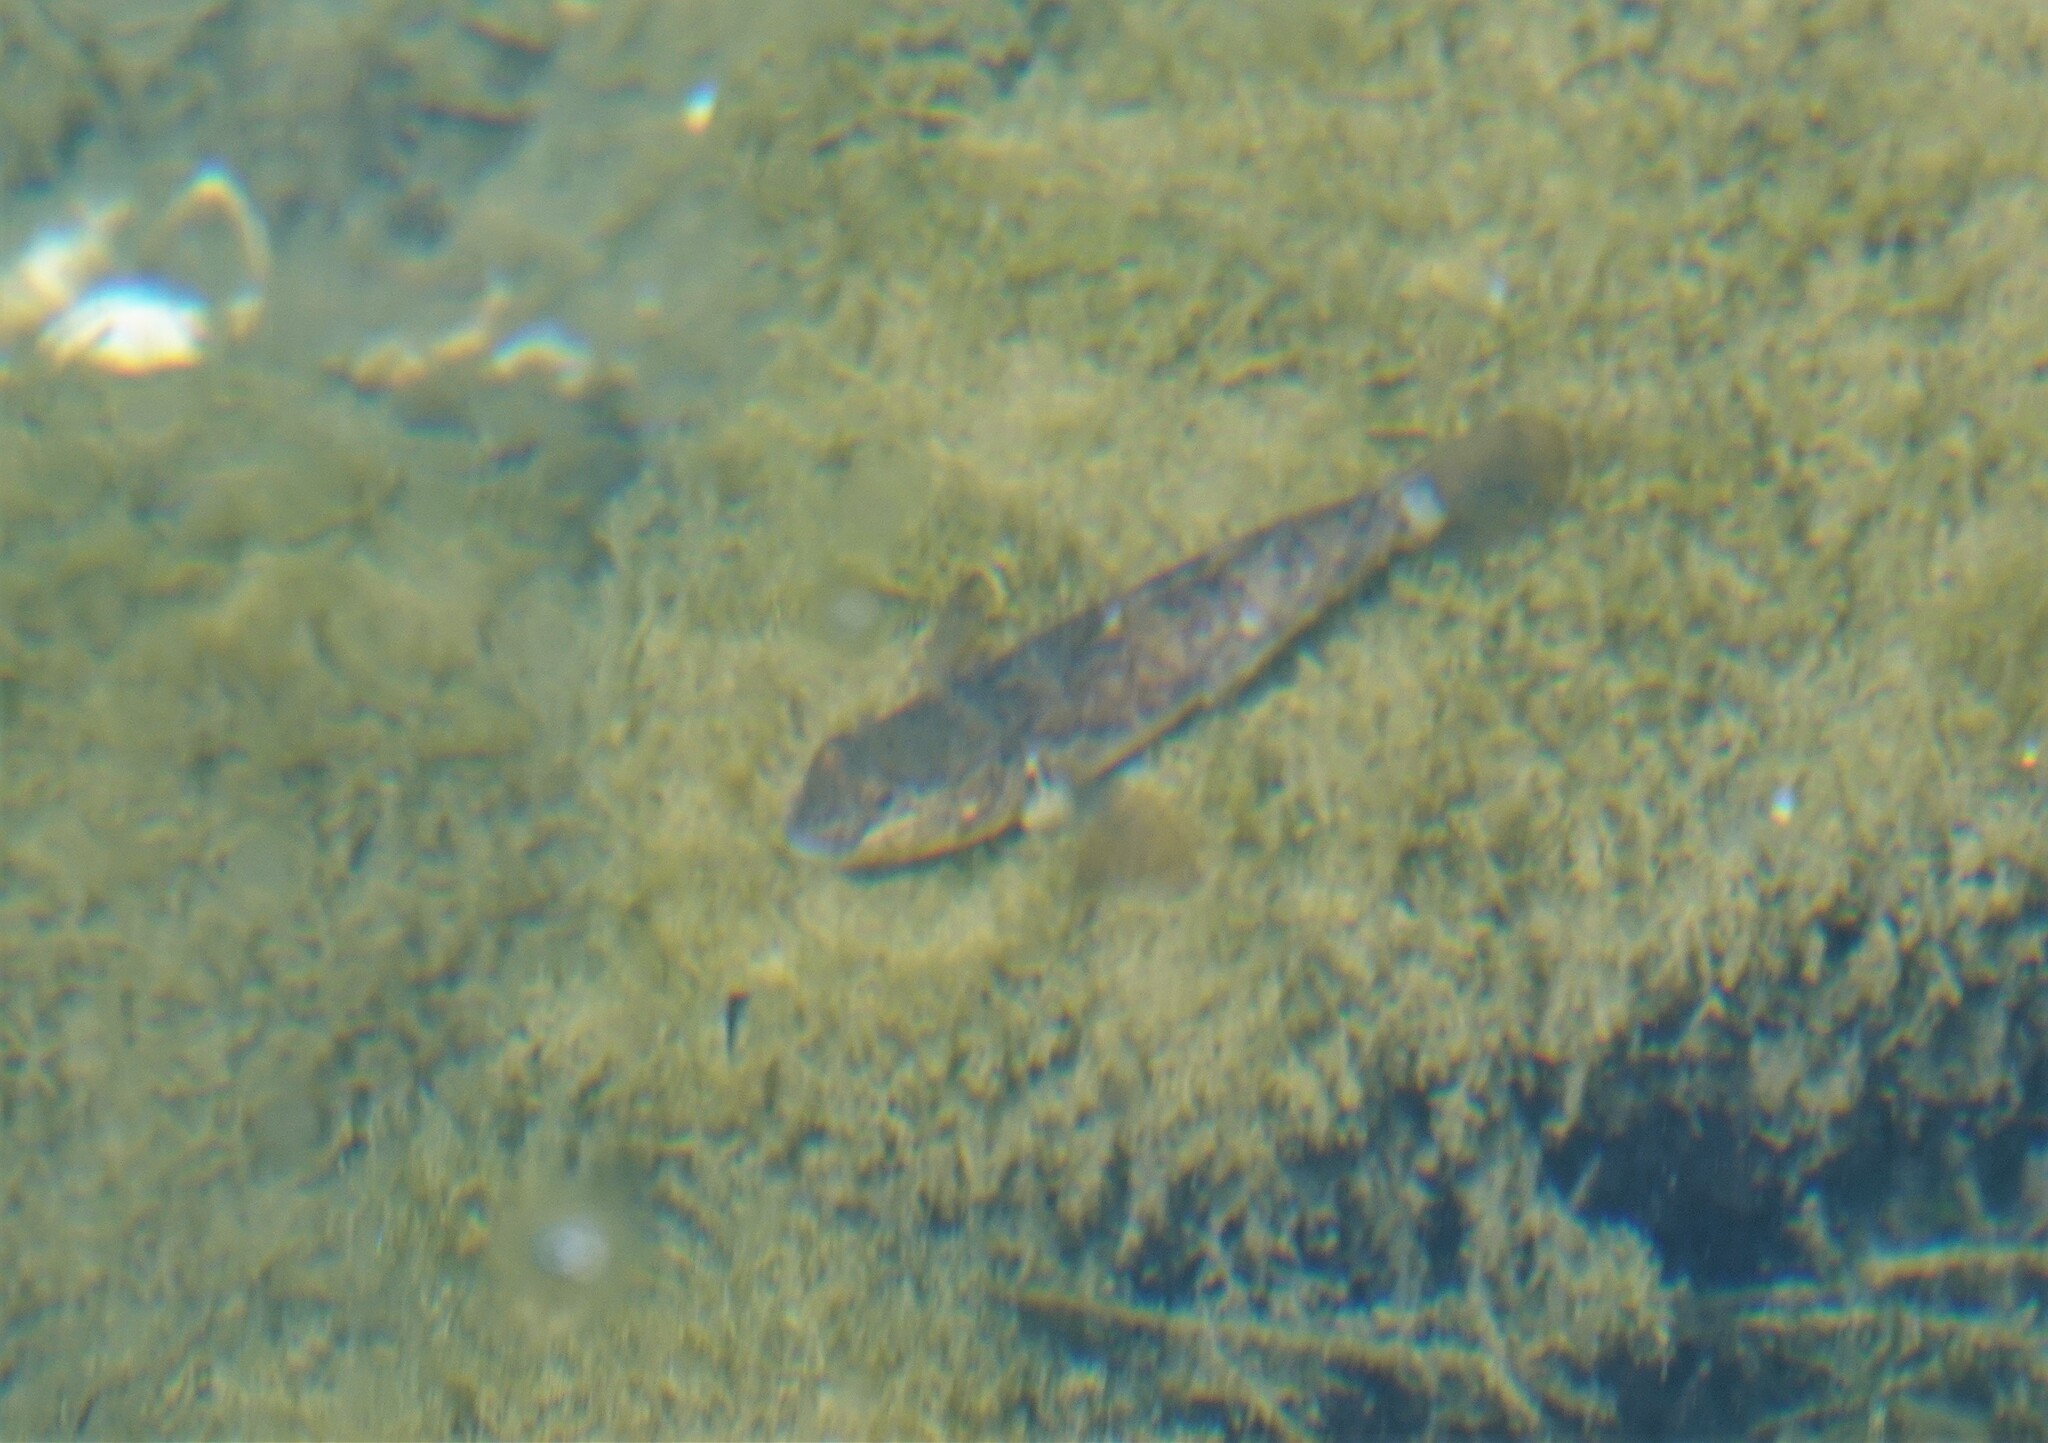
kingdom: Animalia
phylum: Chordata
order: Perciformes
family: Gobiidae
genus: Neogobius
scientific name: Neogobius melanostomus
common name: Round goby
